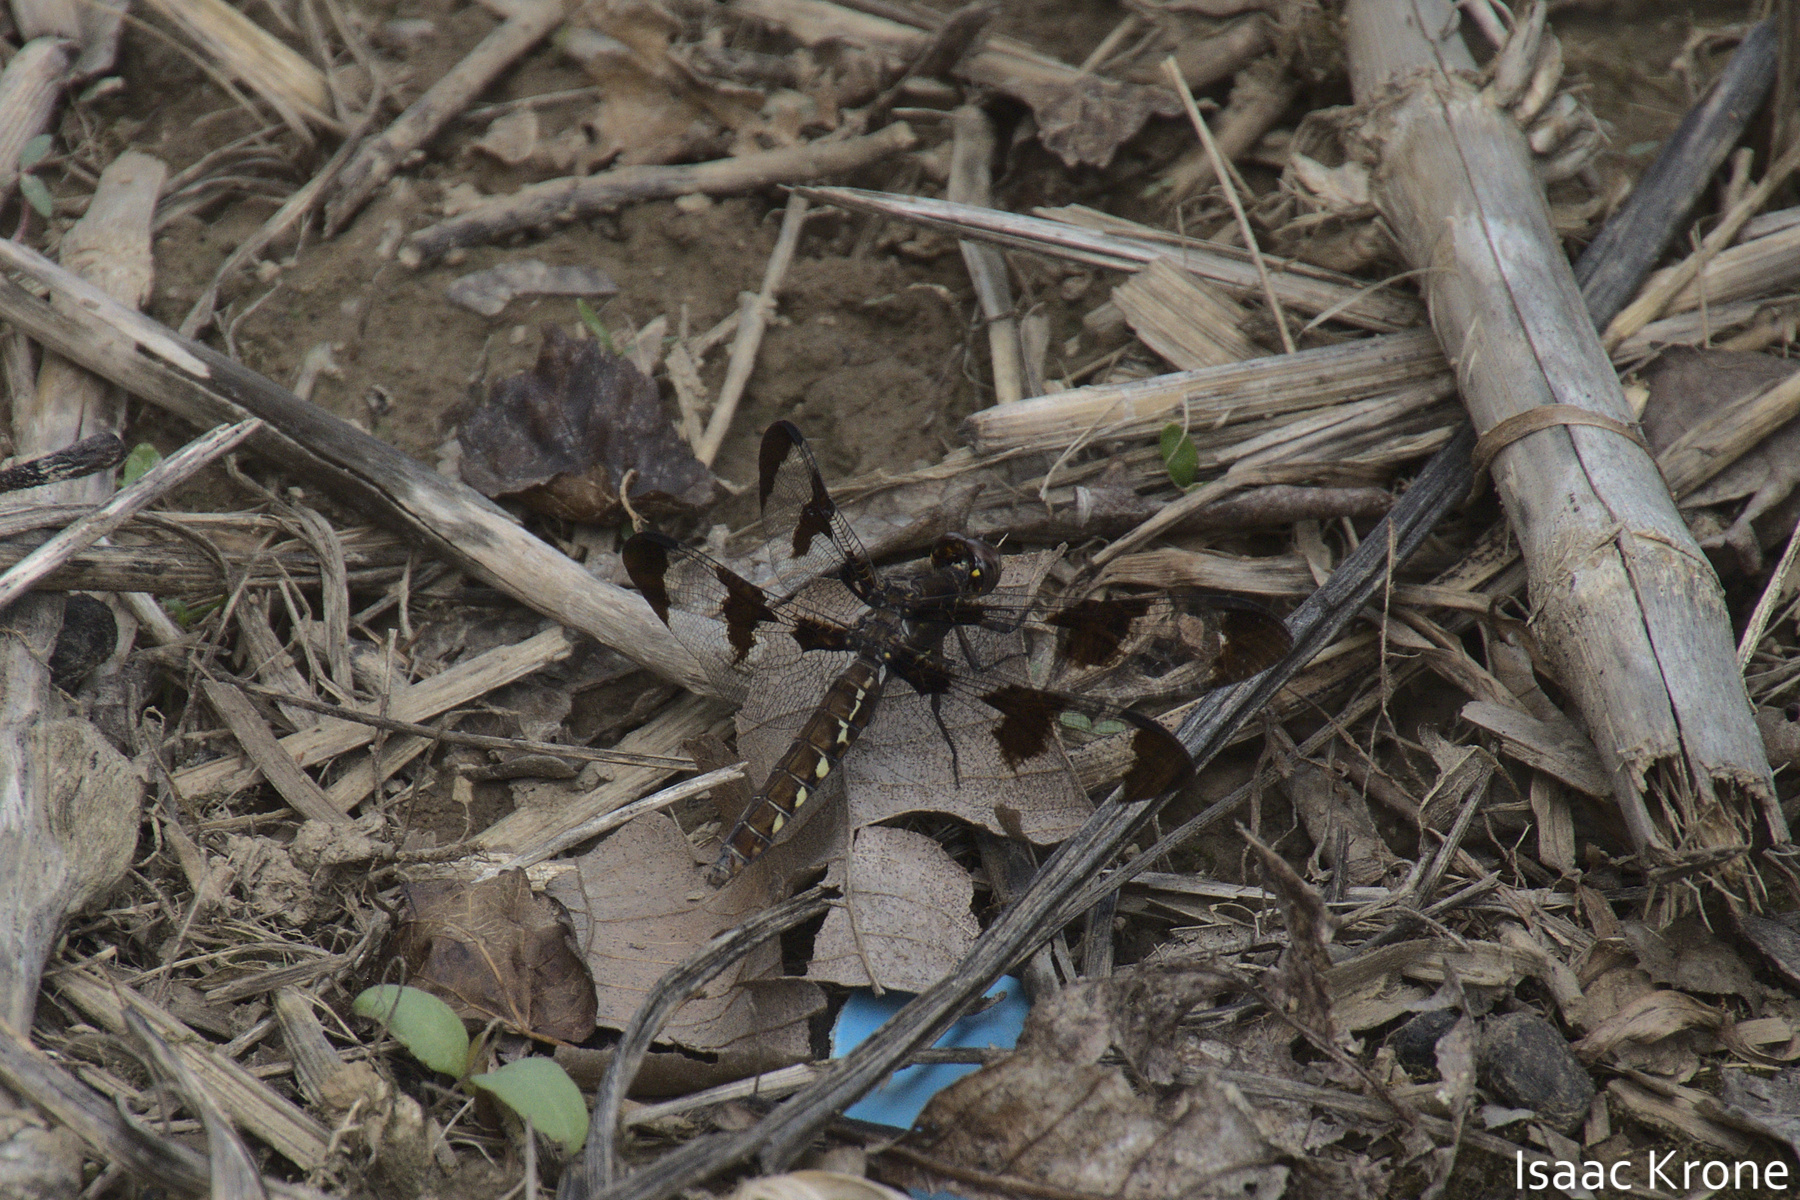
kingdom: Animalia
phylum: Arthropoda
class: Insecta
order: Odonata
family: Libellulidae
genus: Plathemis
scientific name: Plathemis lydia
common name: Common whitetail
